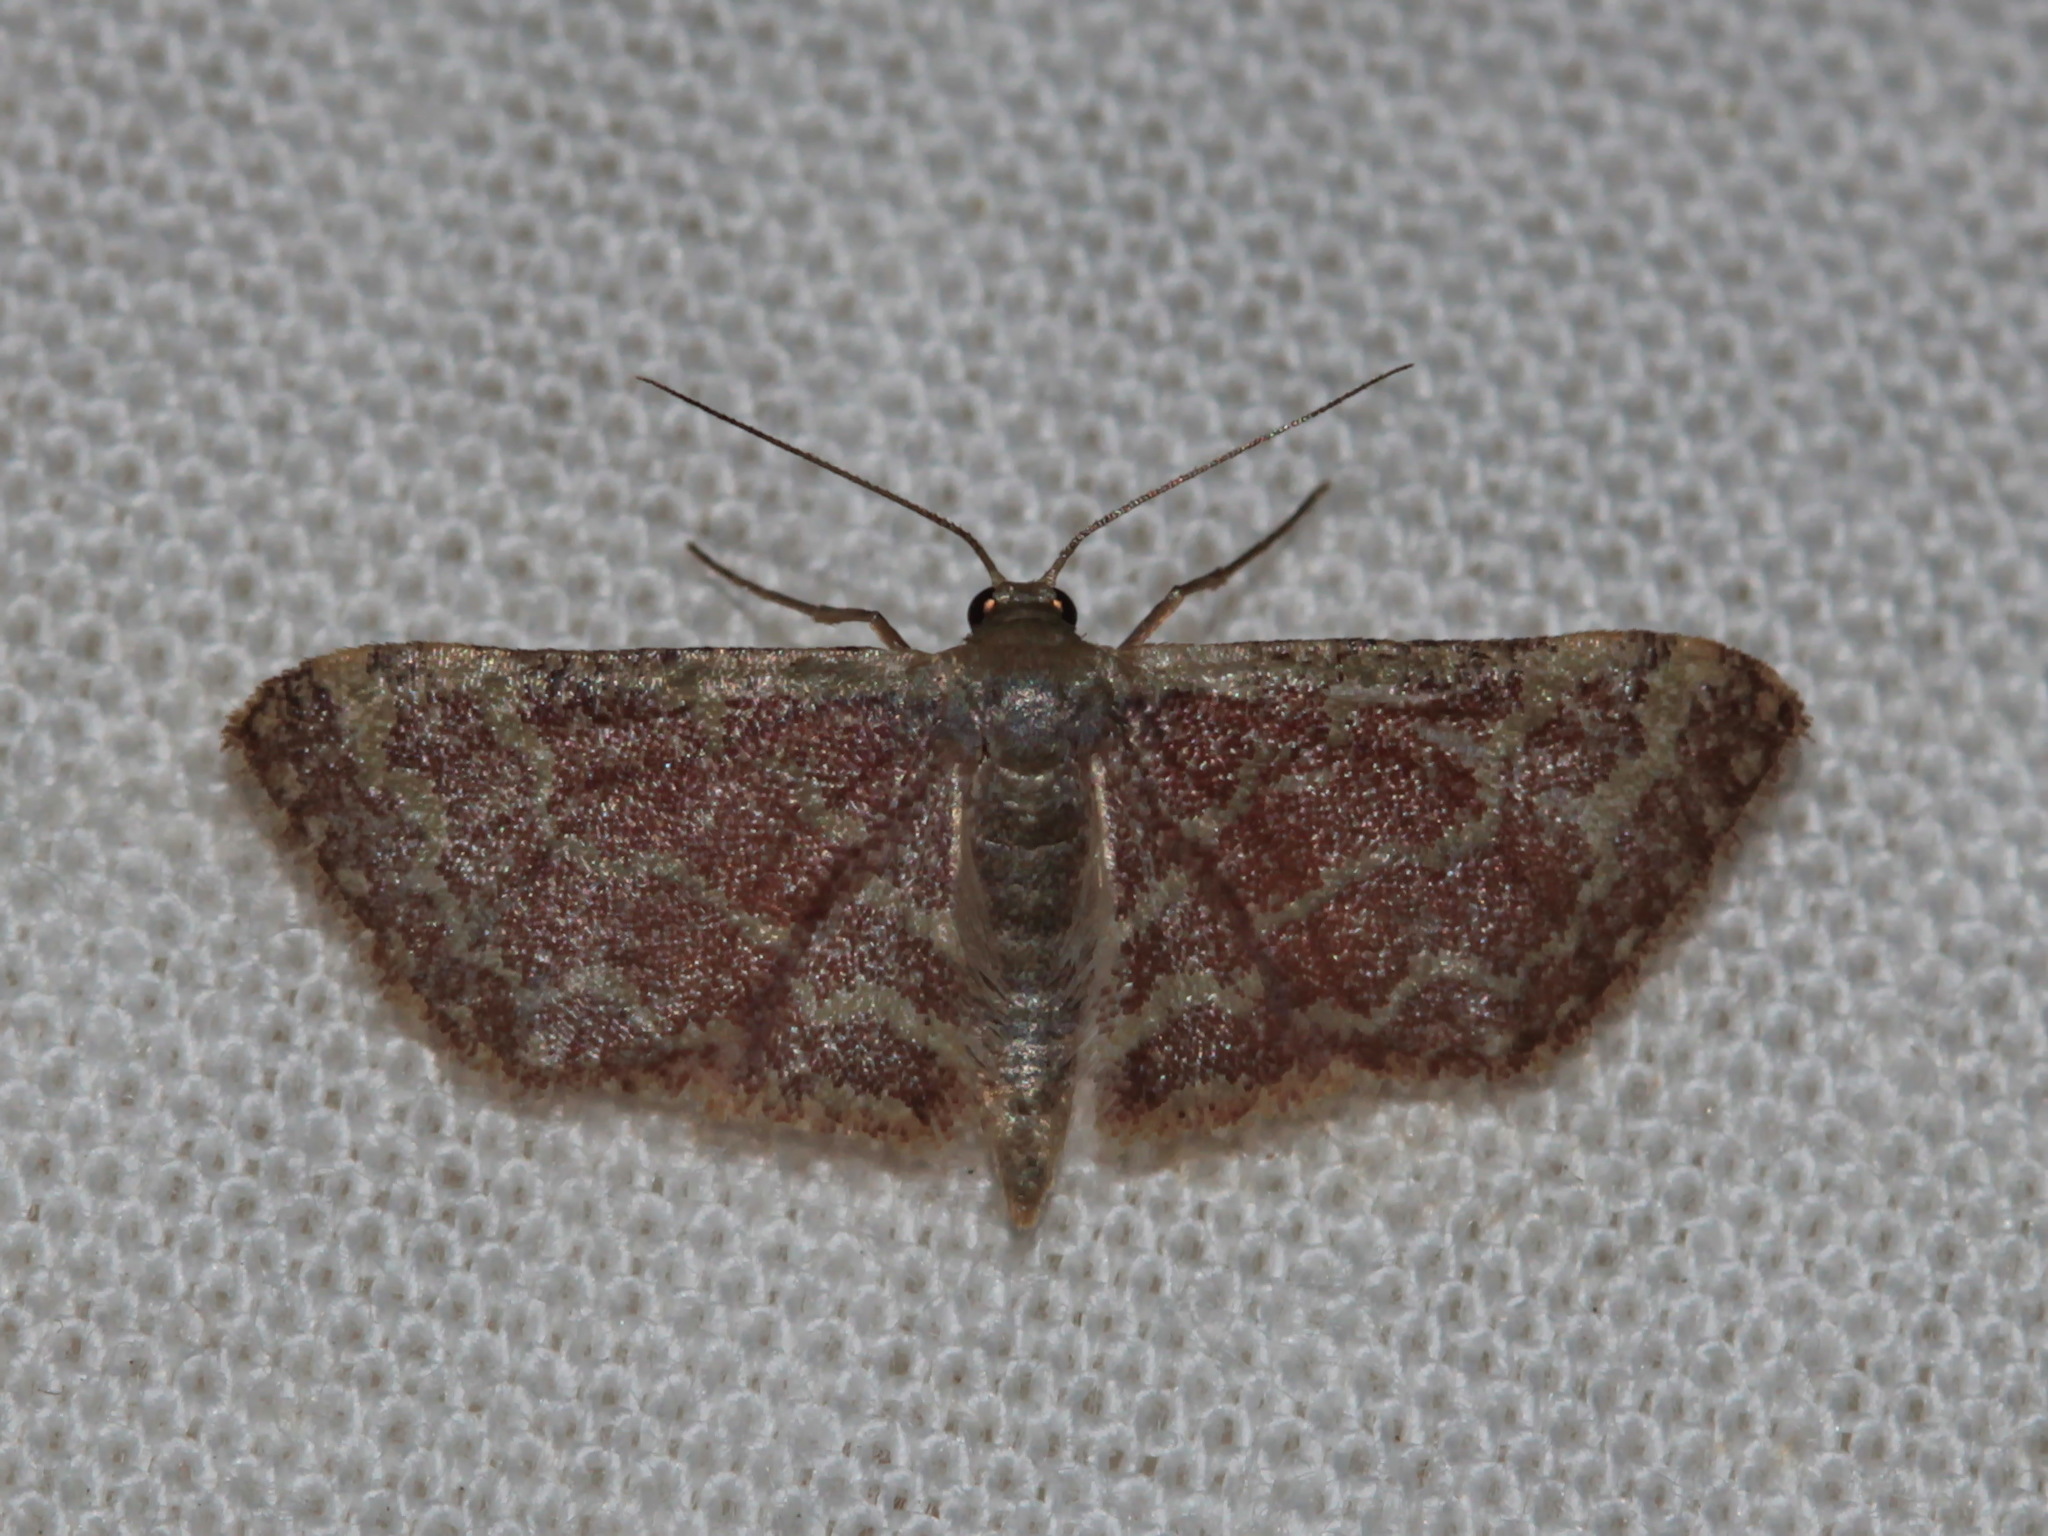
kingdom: Animalia
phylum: Arthropoda
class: Insecta
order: Lepidoptera
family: Geometridae
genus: Lophophleps
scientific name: Lophophleps purpurea
